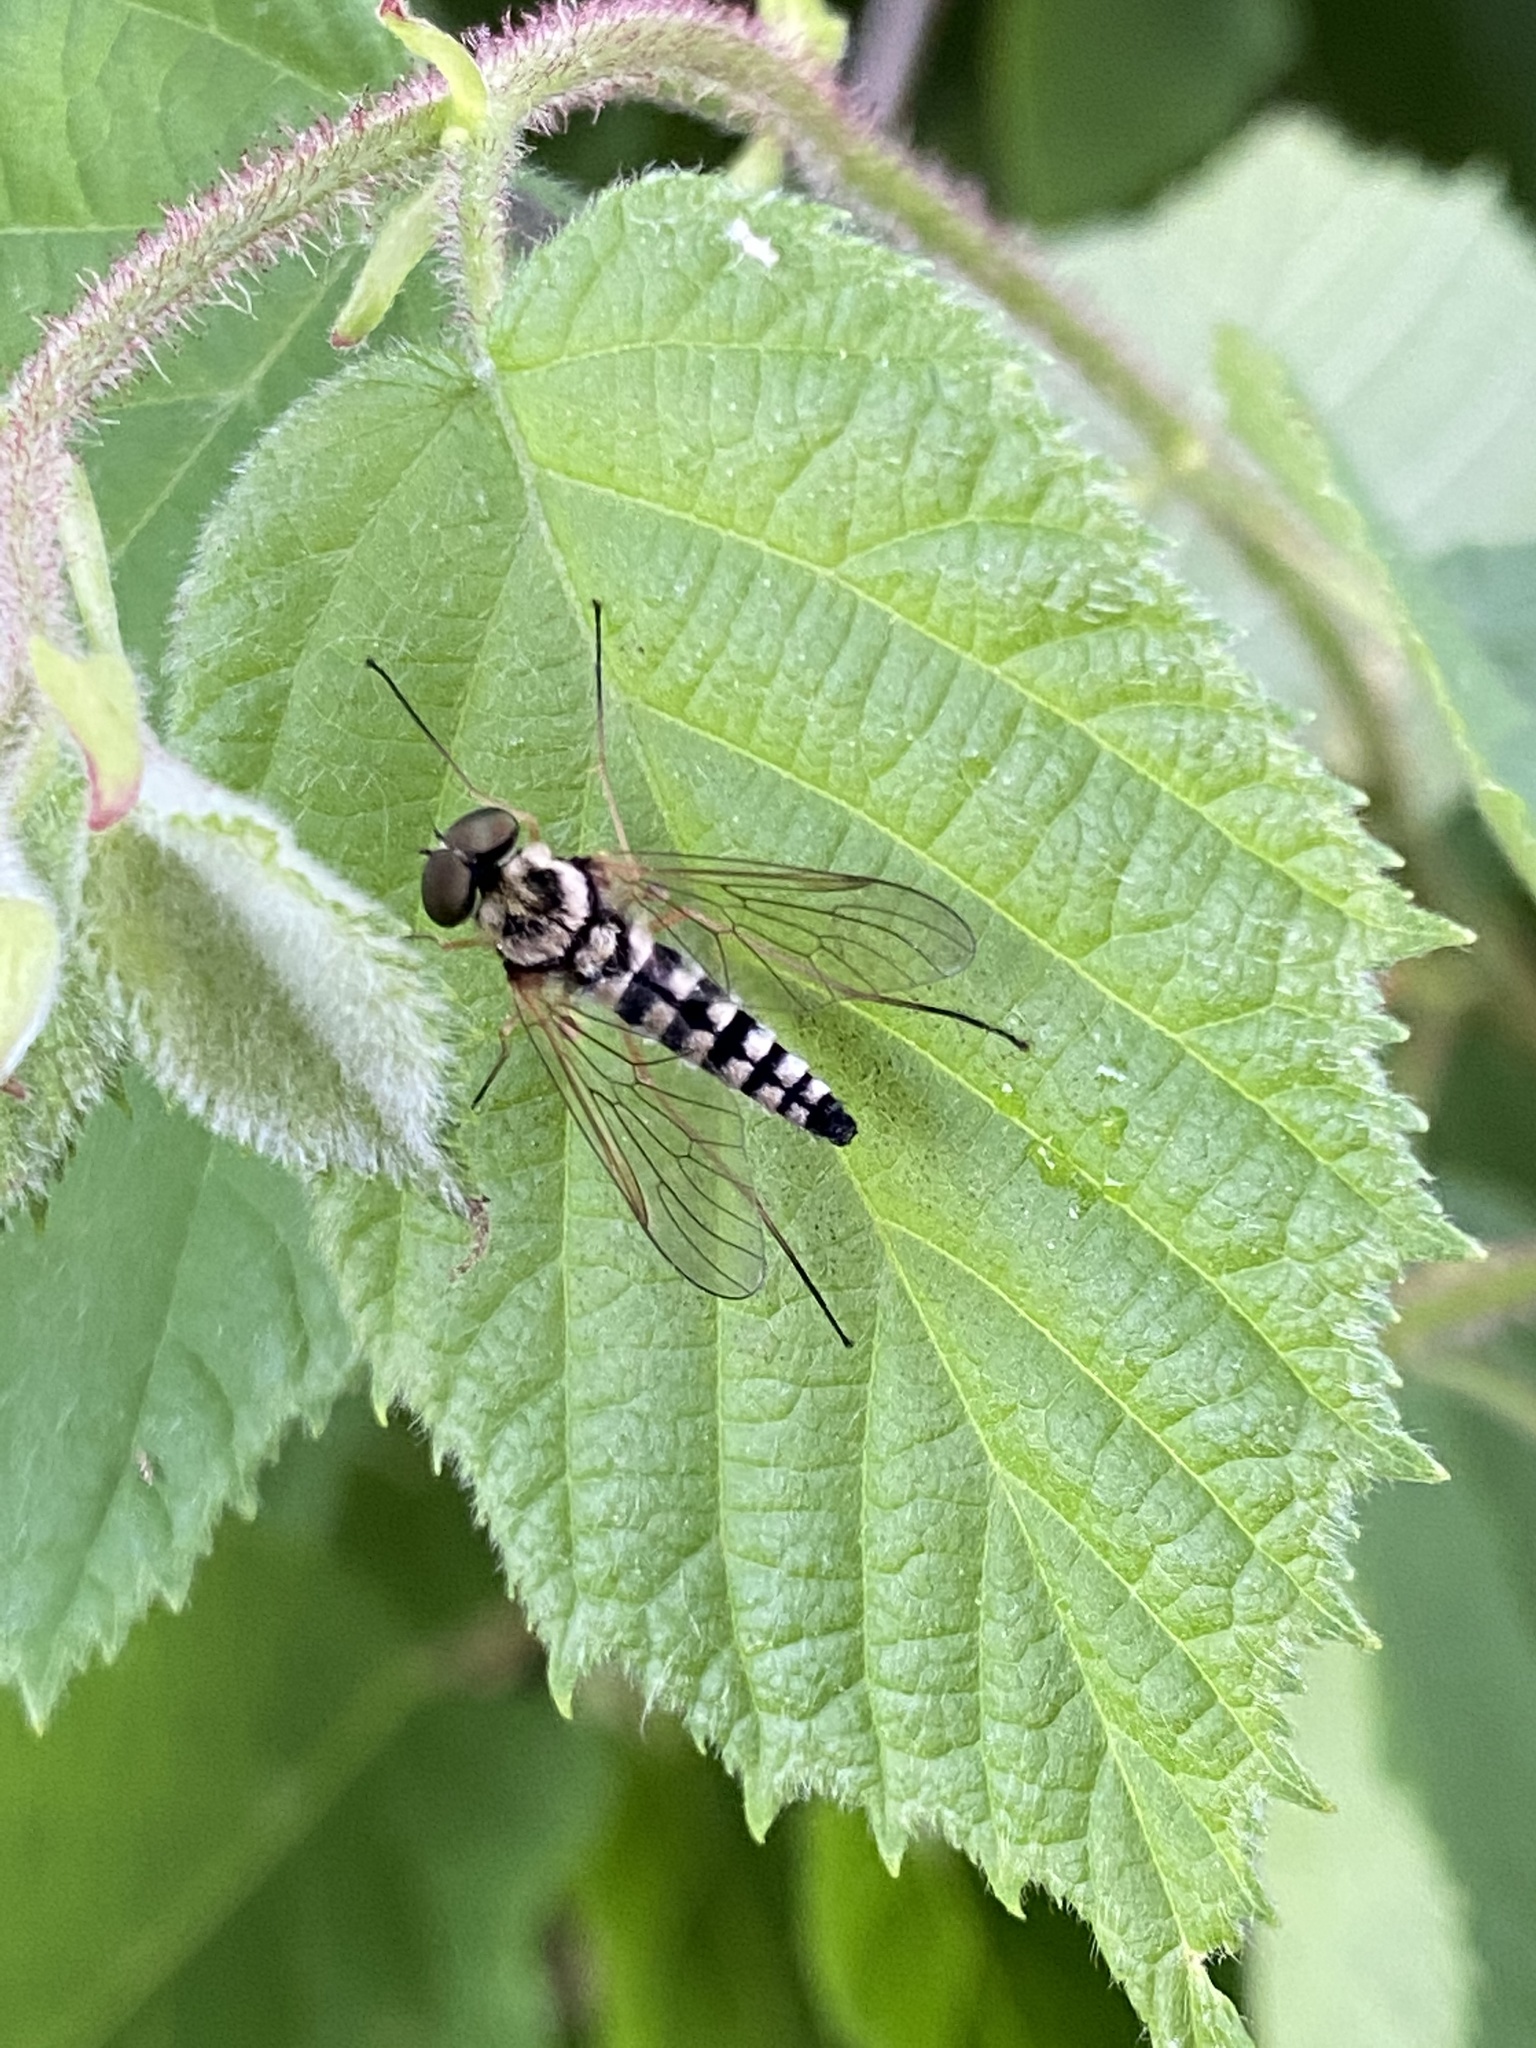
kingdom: Animalia
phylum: Arthropoda
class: Insecta
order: Diptera
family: Rhagionidae
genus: Chrysopilus
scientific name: Chrysopilus ornatus
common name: Ornate snipe fly
